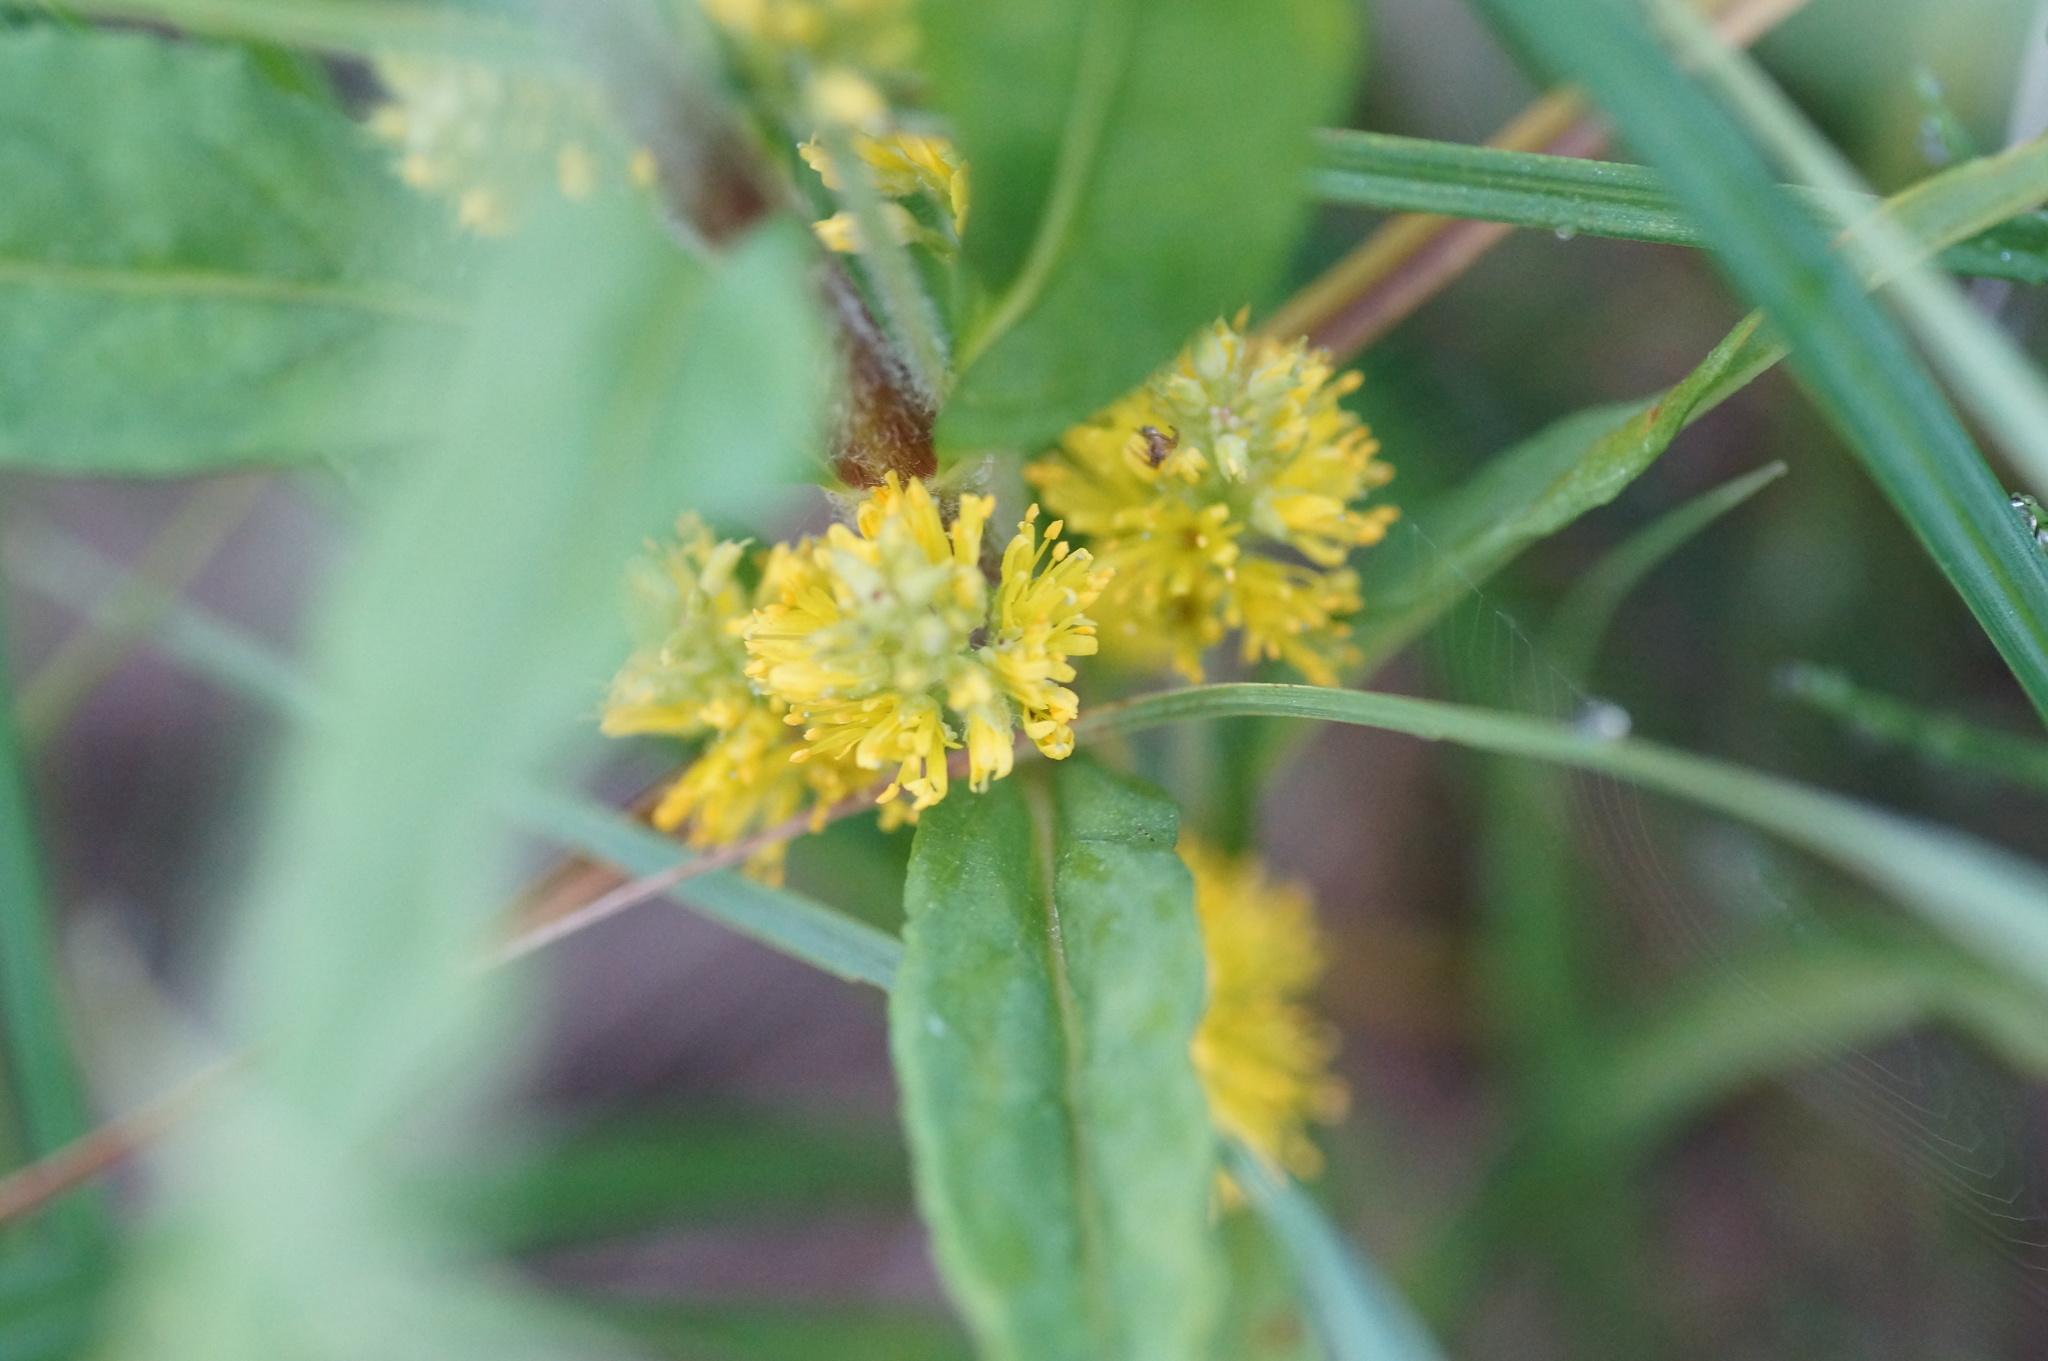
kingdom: Plantae
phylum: Tracheophyta
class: Magnoliopsida
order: Ericales
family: Primulaceae
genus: Lysimachia
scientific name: Lysimachia thyrsiflora
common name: Tufted loosestrife
